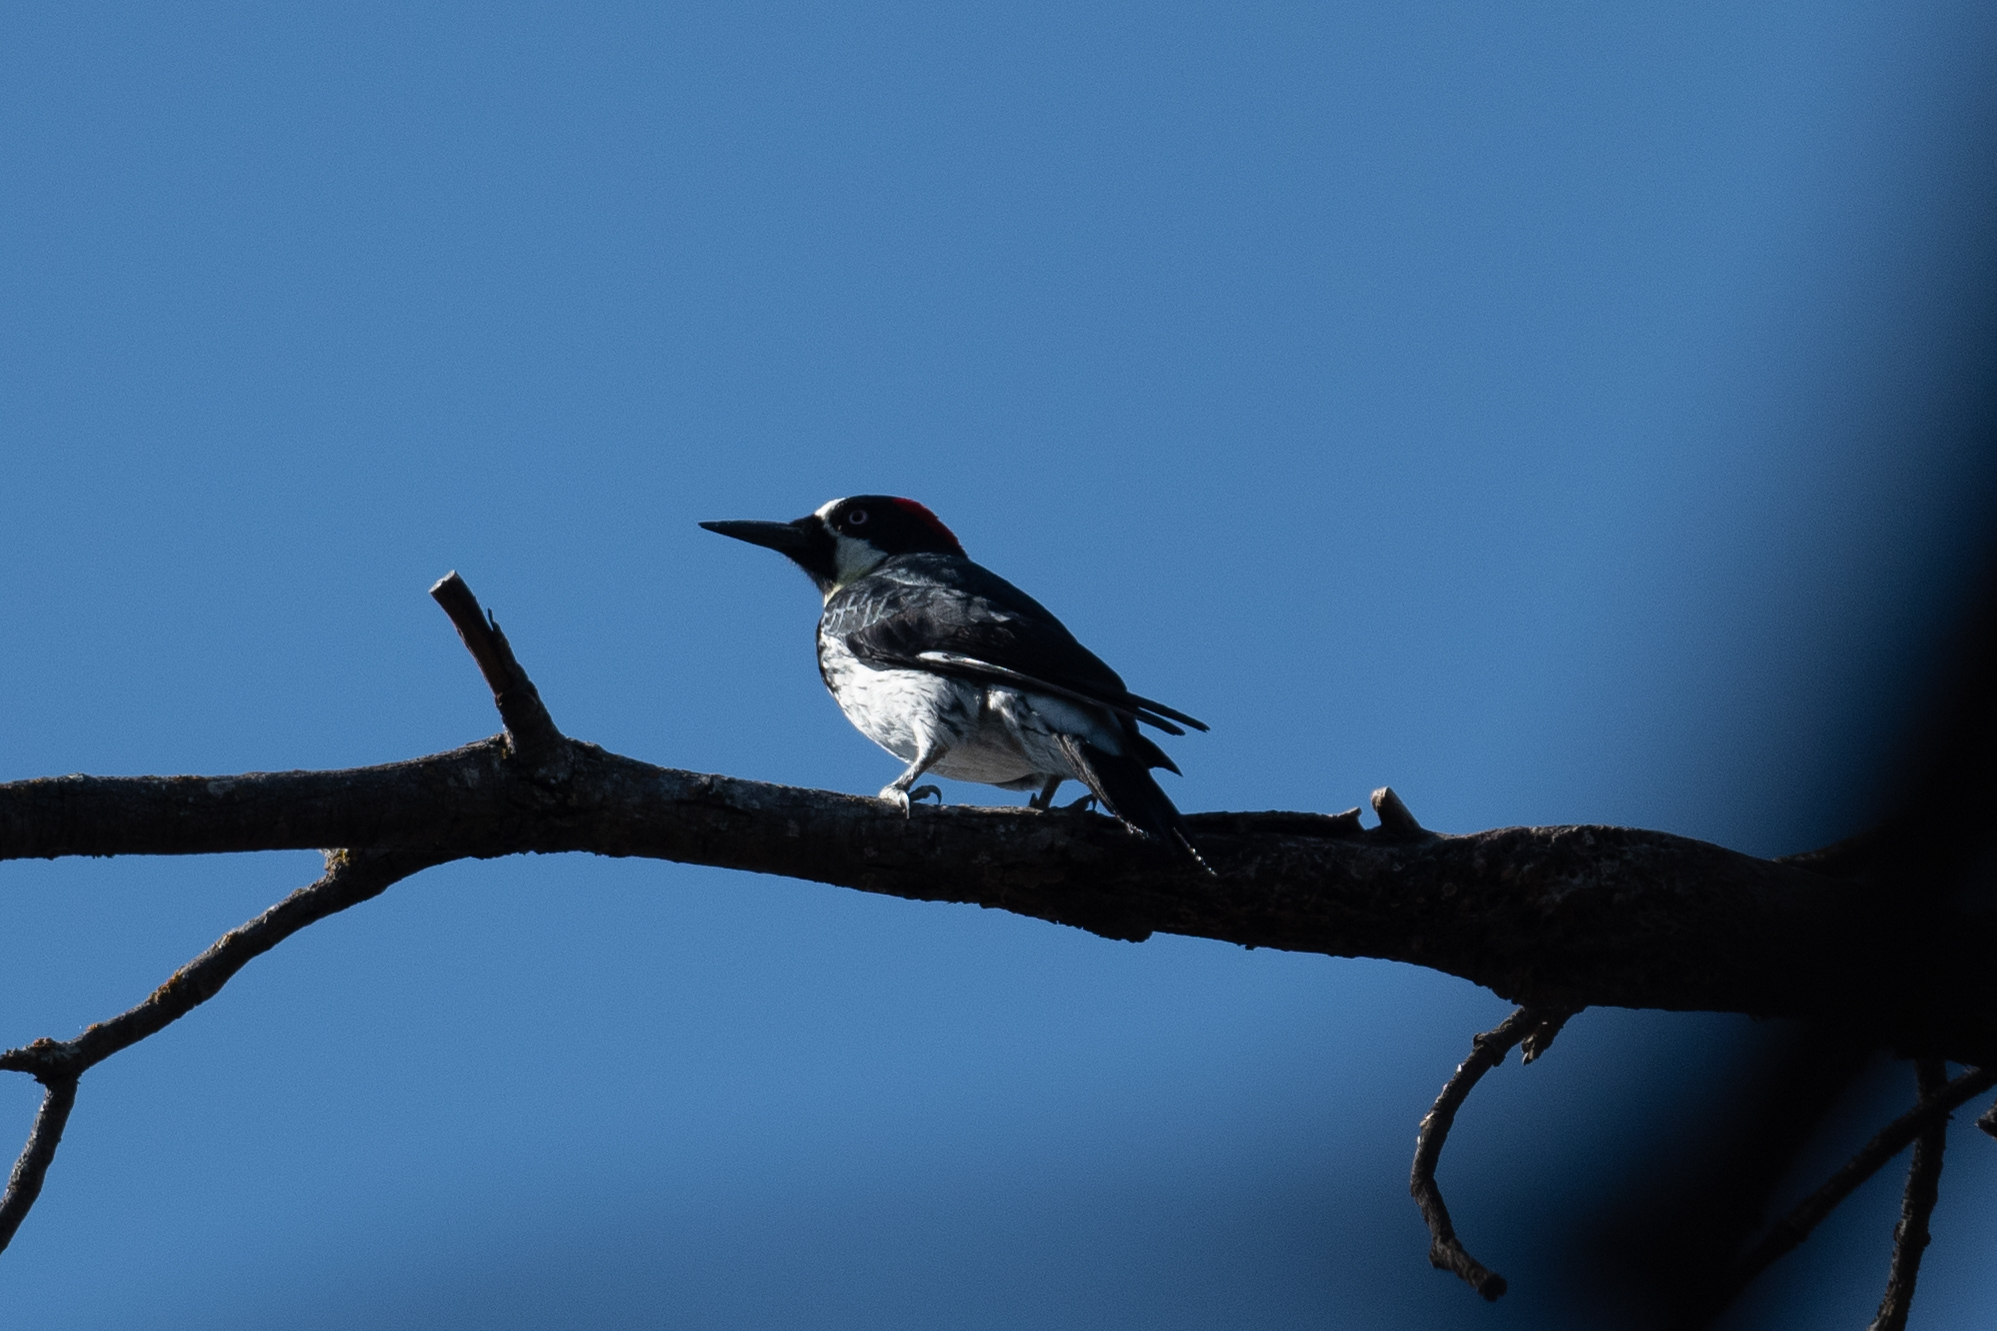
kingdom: Animalia
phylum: Chordata
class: Aves
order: Piciformes
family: Picidae
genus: Melanerpes
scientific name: Melanerpes formicivorus
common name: Acorn woodpecker
